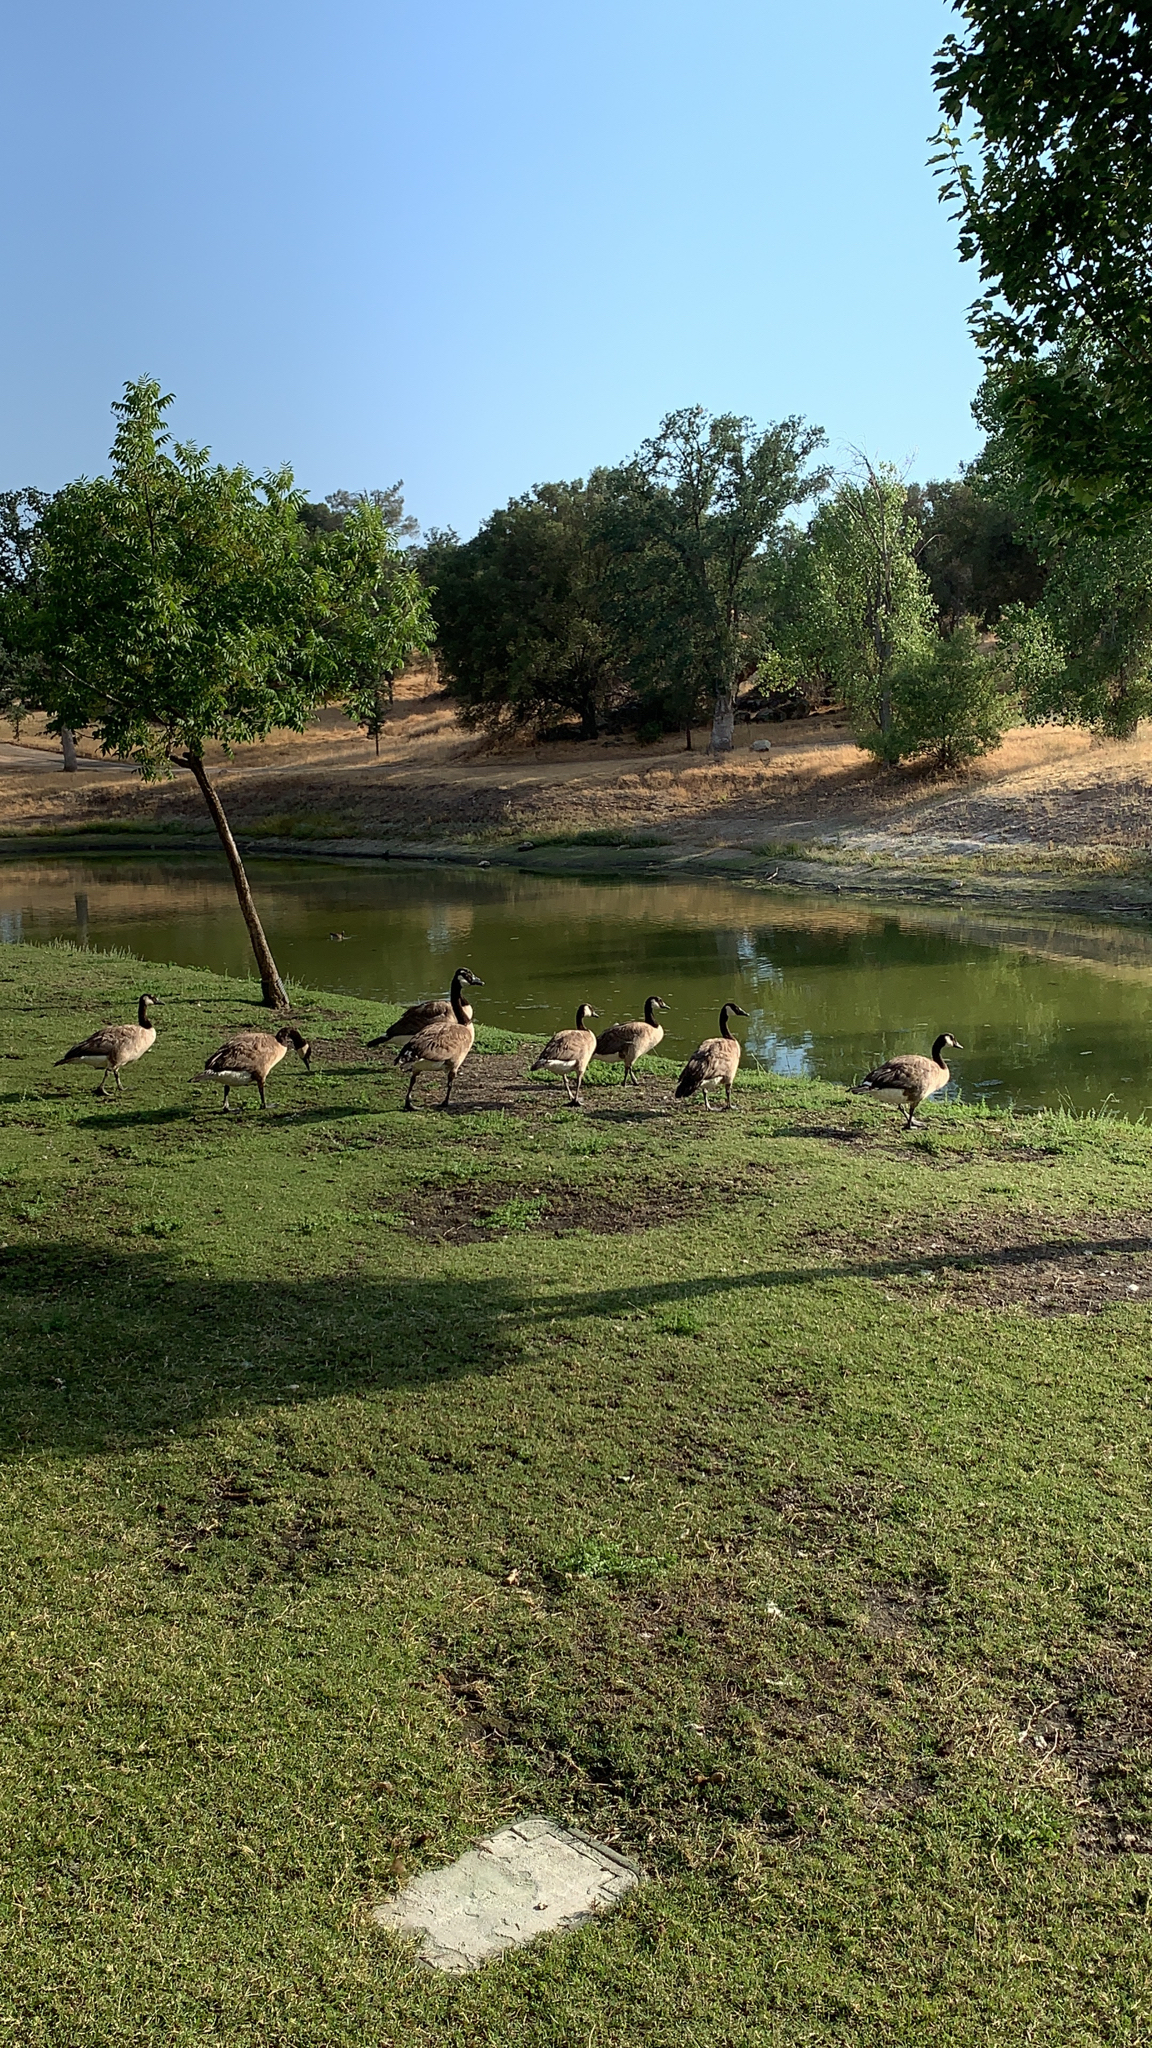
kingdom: Animalia
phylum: Chordata
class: Aves
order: Anseriformes
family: Anatidae
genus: Branta
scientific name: Branta canadensis
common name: Canada goose
